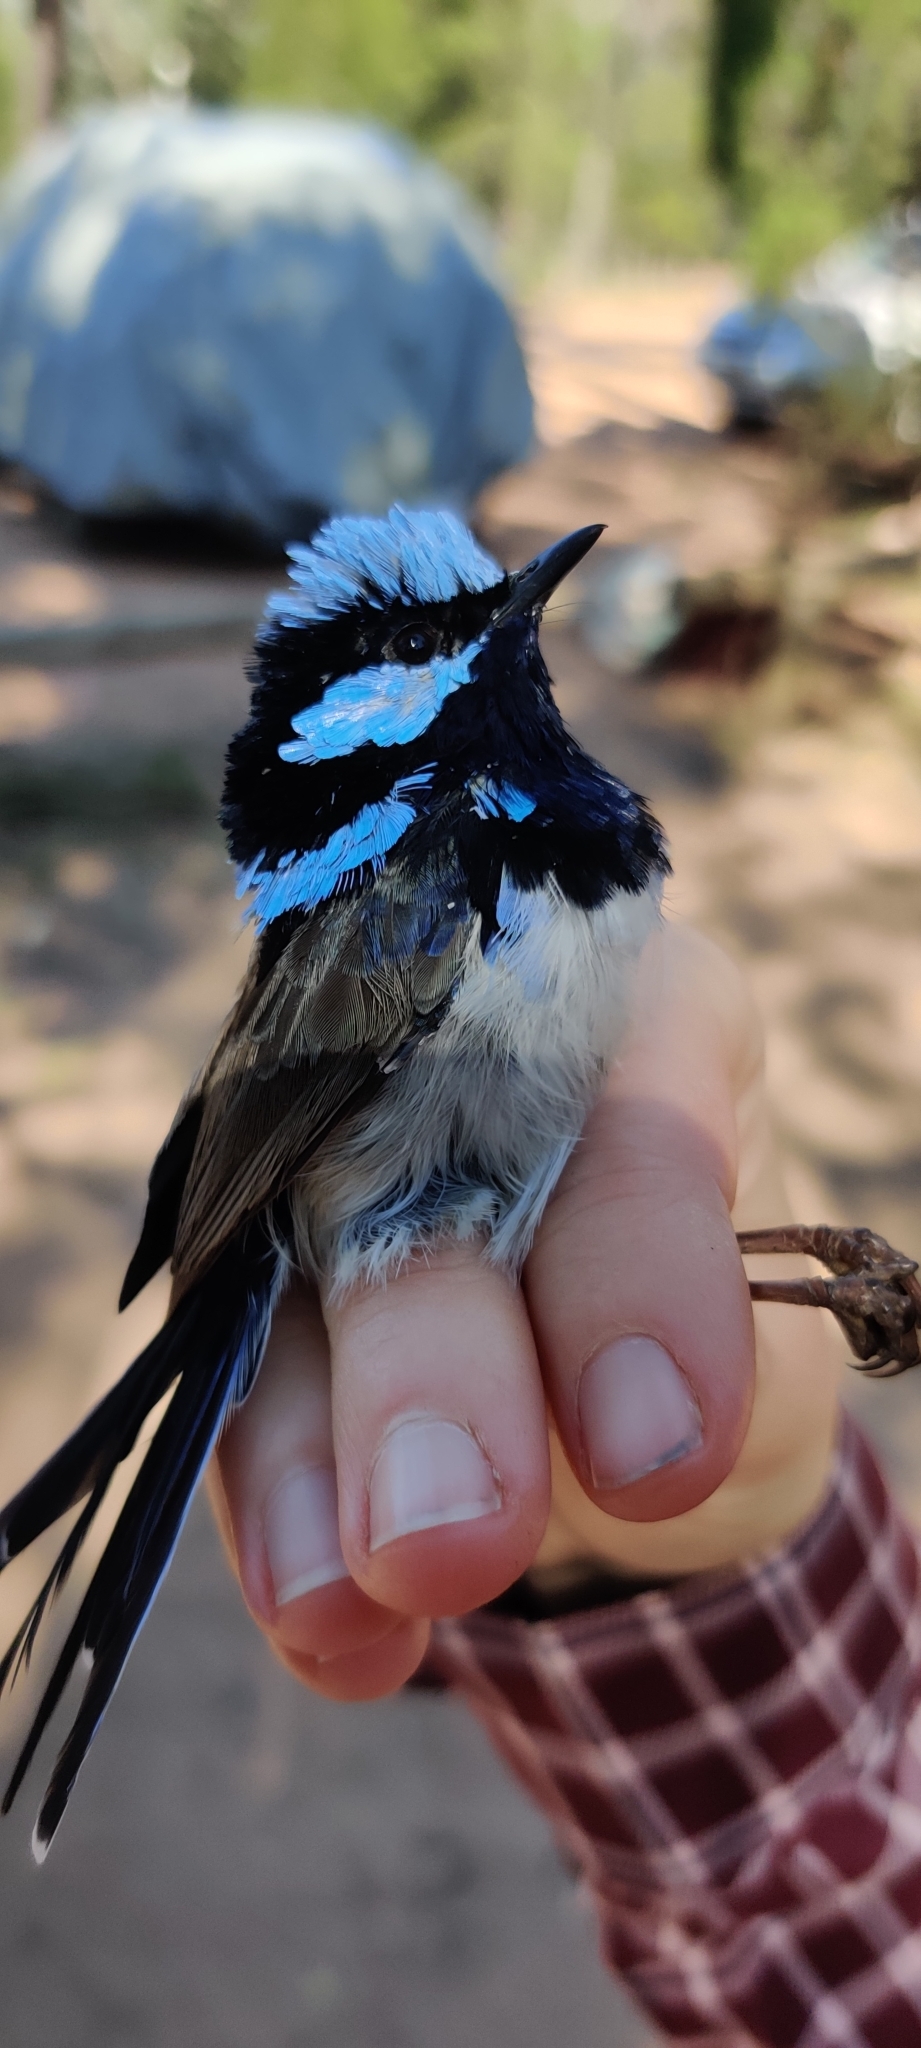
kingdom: Animalia
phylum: Chordata
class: Aves
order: Passeriformes
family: Maluridae
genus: Malurus
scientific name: Malurus cyaneus
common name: Superb fairywren
